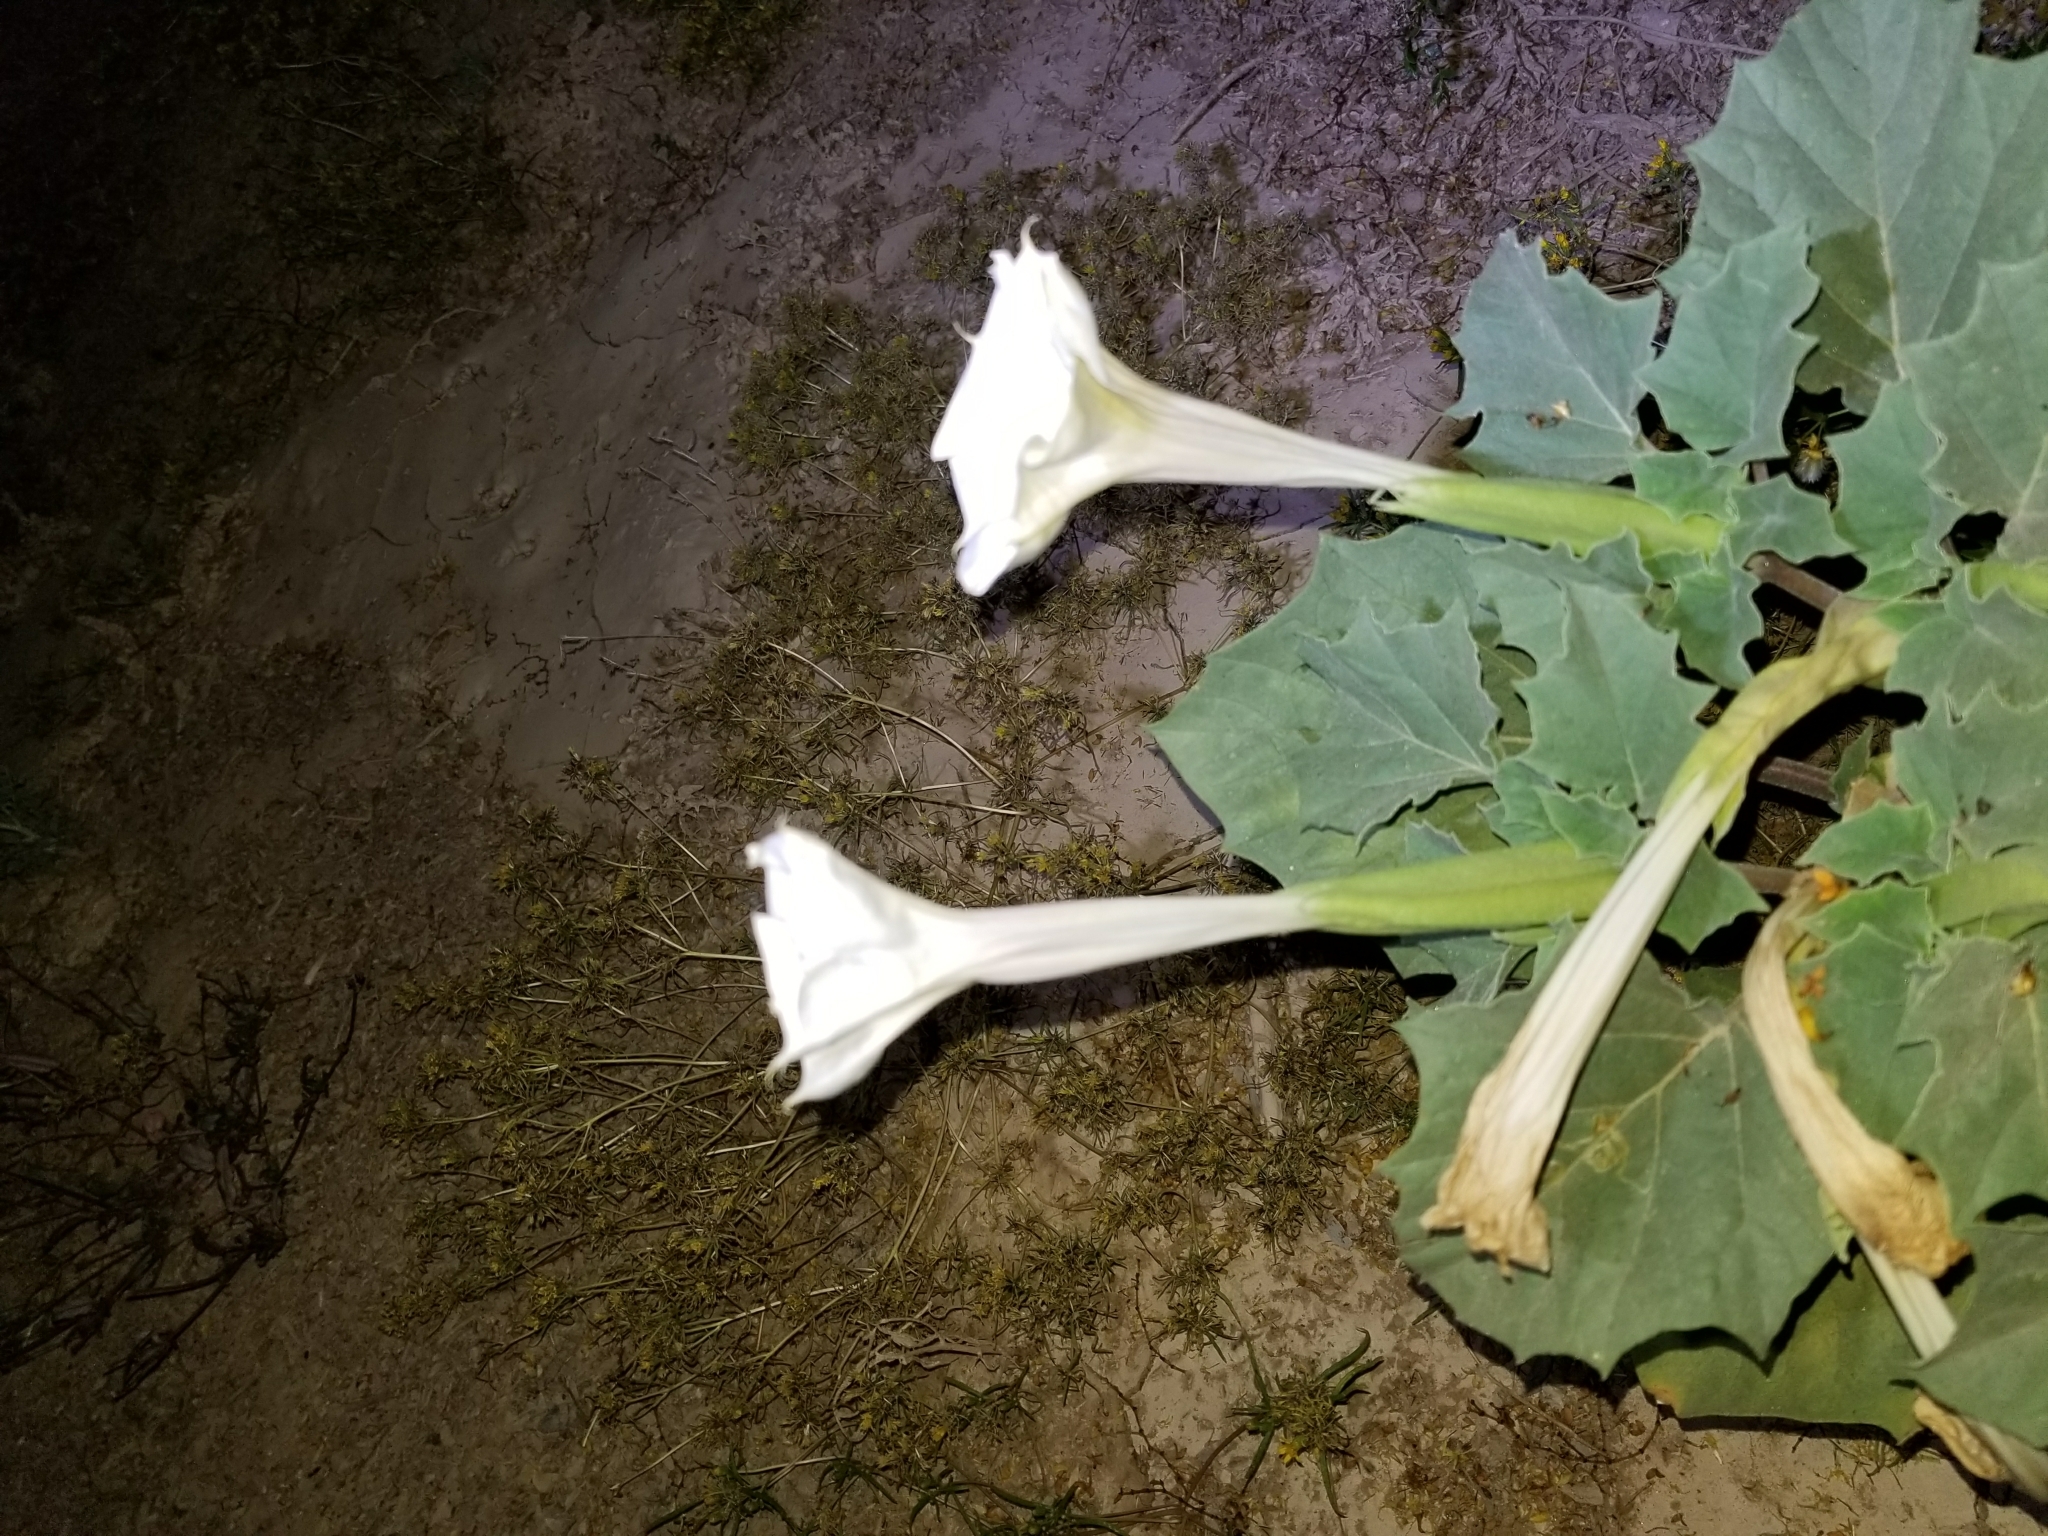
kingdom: Plantae
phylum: Tracheophyta
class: Magnoliopsida
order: Solanales
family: Solanaceae
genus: Datura
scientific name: Datura discolor
